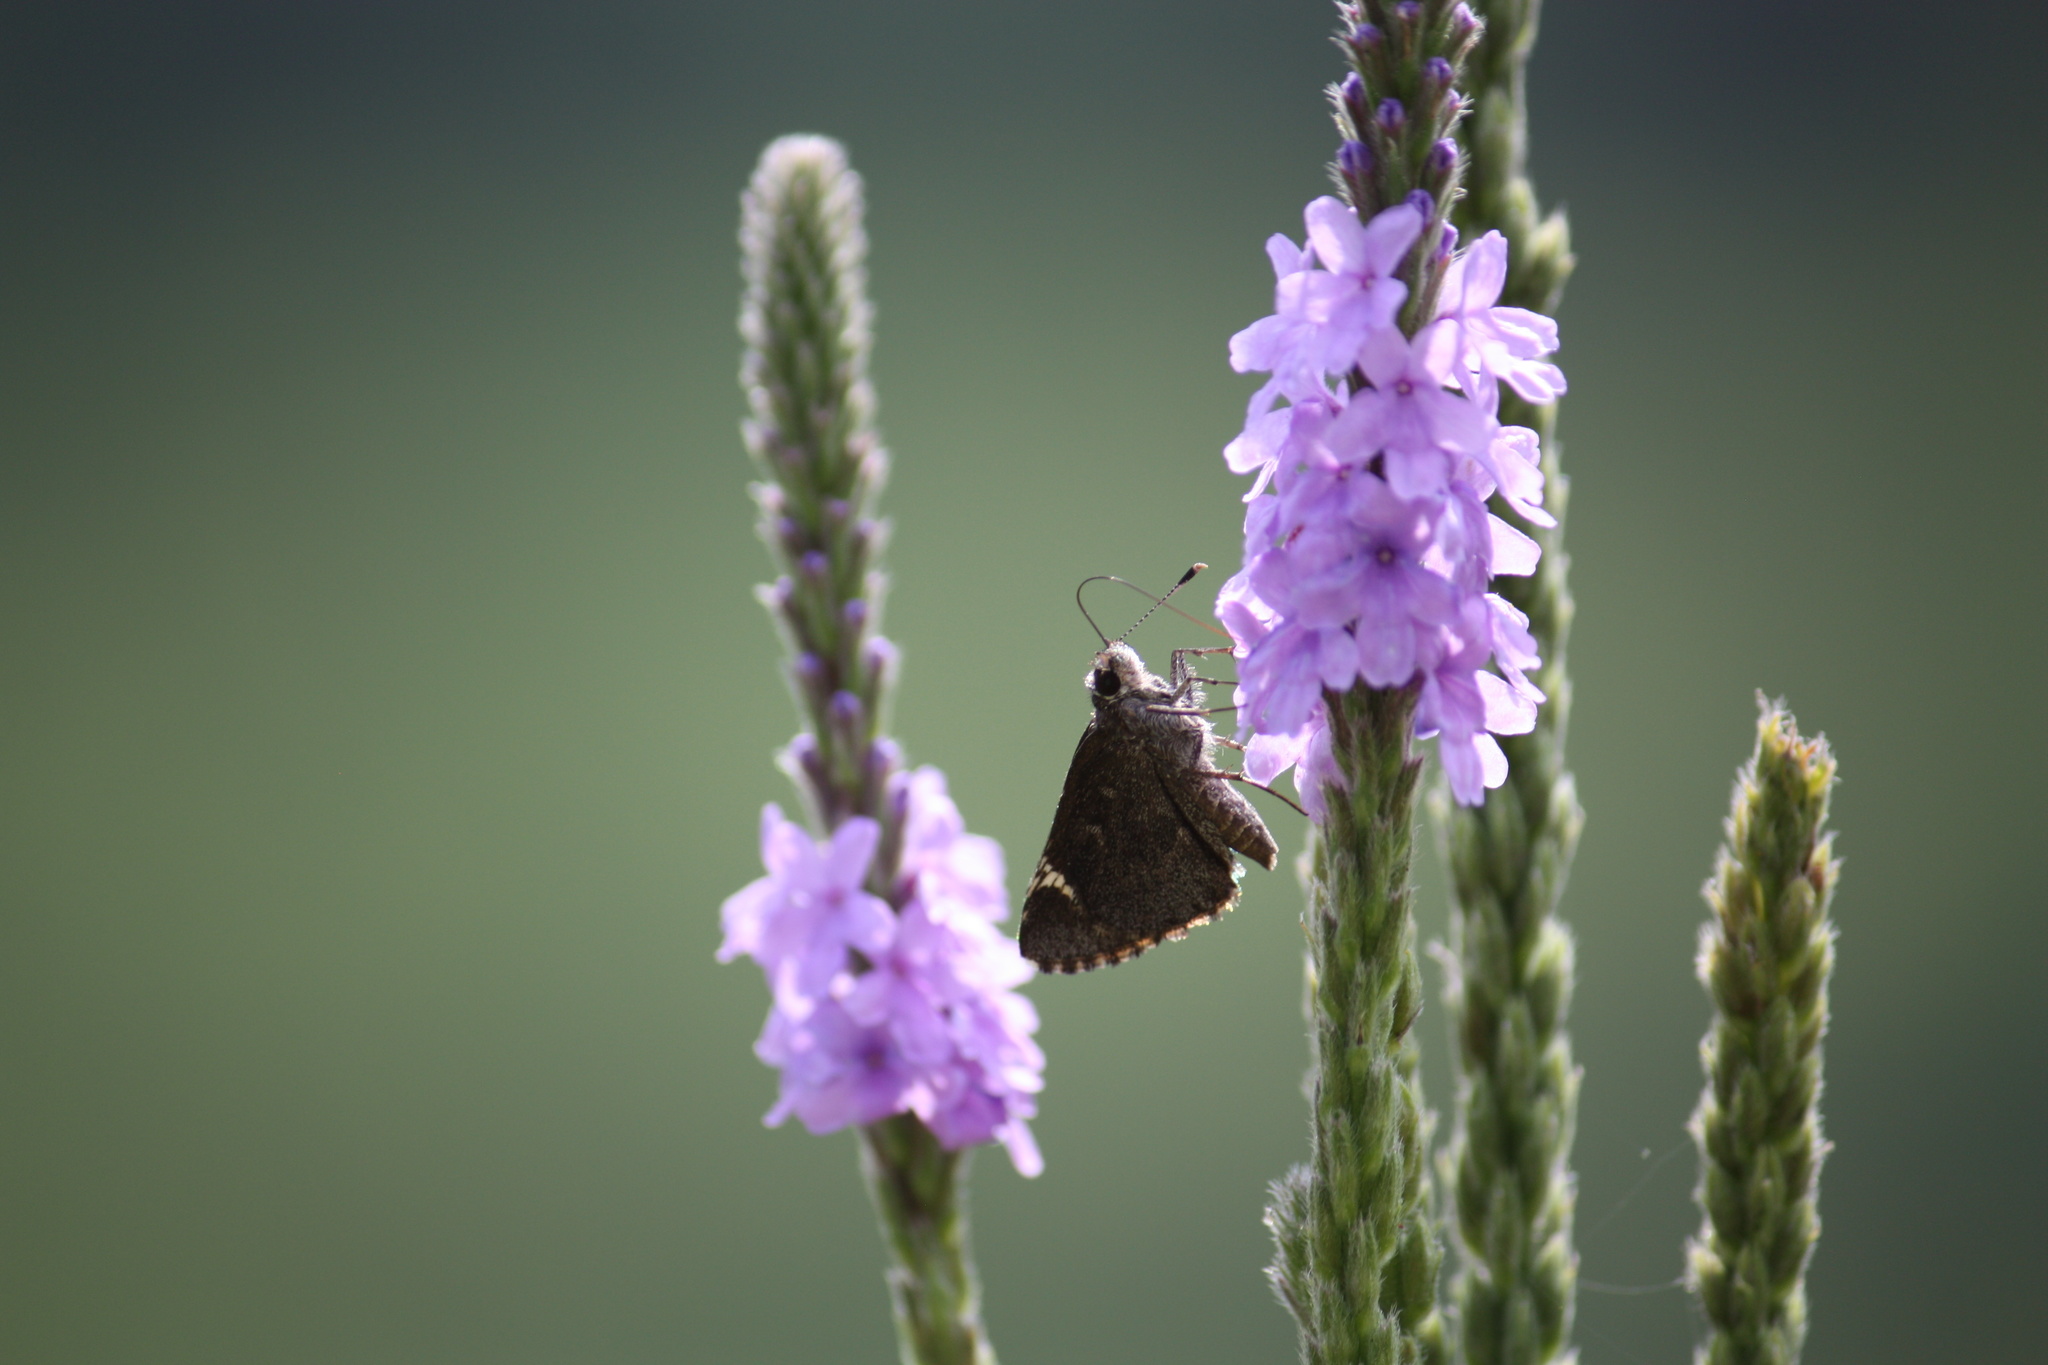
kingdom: Animalia
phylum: Arthropoda
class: Insecta
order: Lepidoptera
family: Hesperiidae
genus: Mastor
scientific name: Mastor vialis
